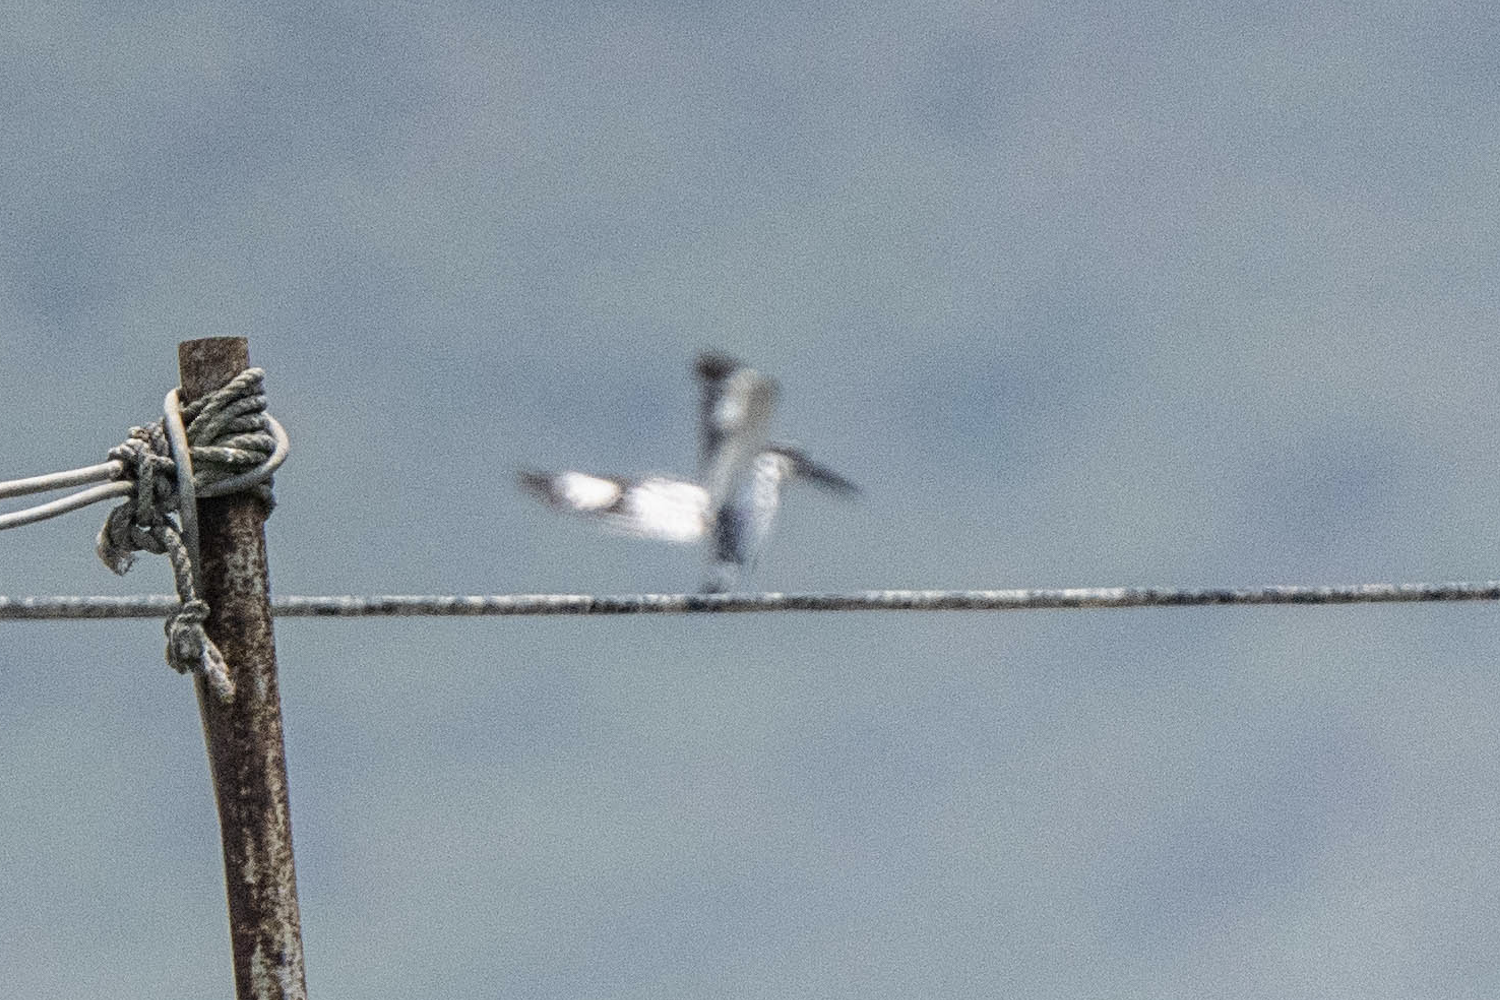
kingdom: Animalia
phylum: Chordata
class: Aves
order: Coraciiformes
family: Alcedinidae
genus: Ceryle
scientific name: Ceryle rudis
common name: Pied kingfisher
